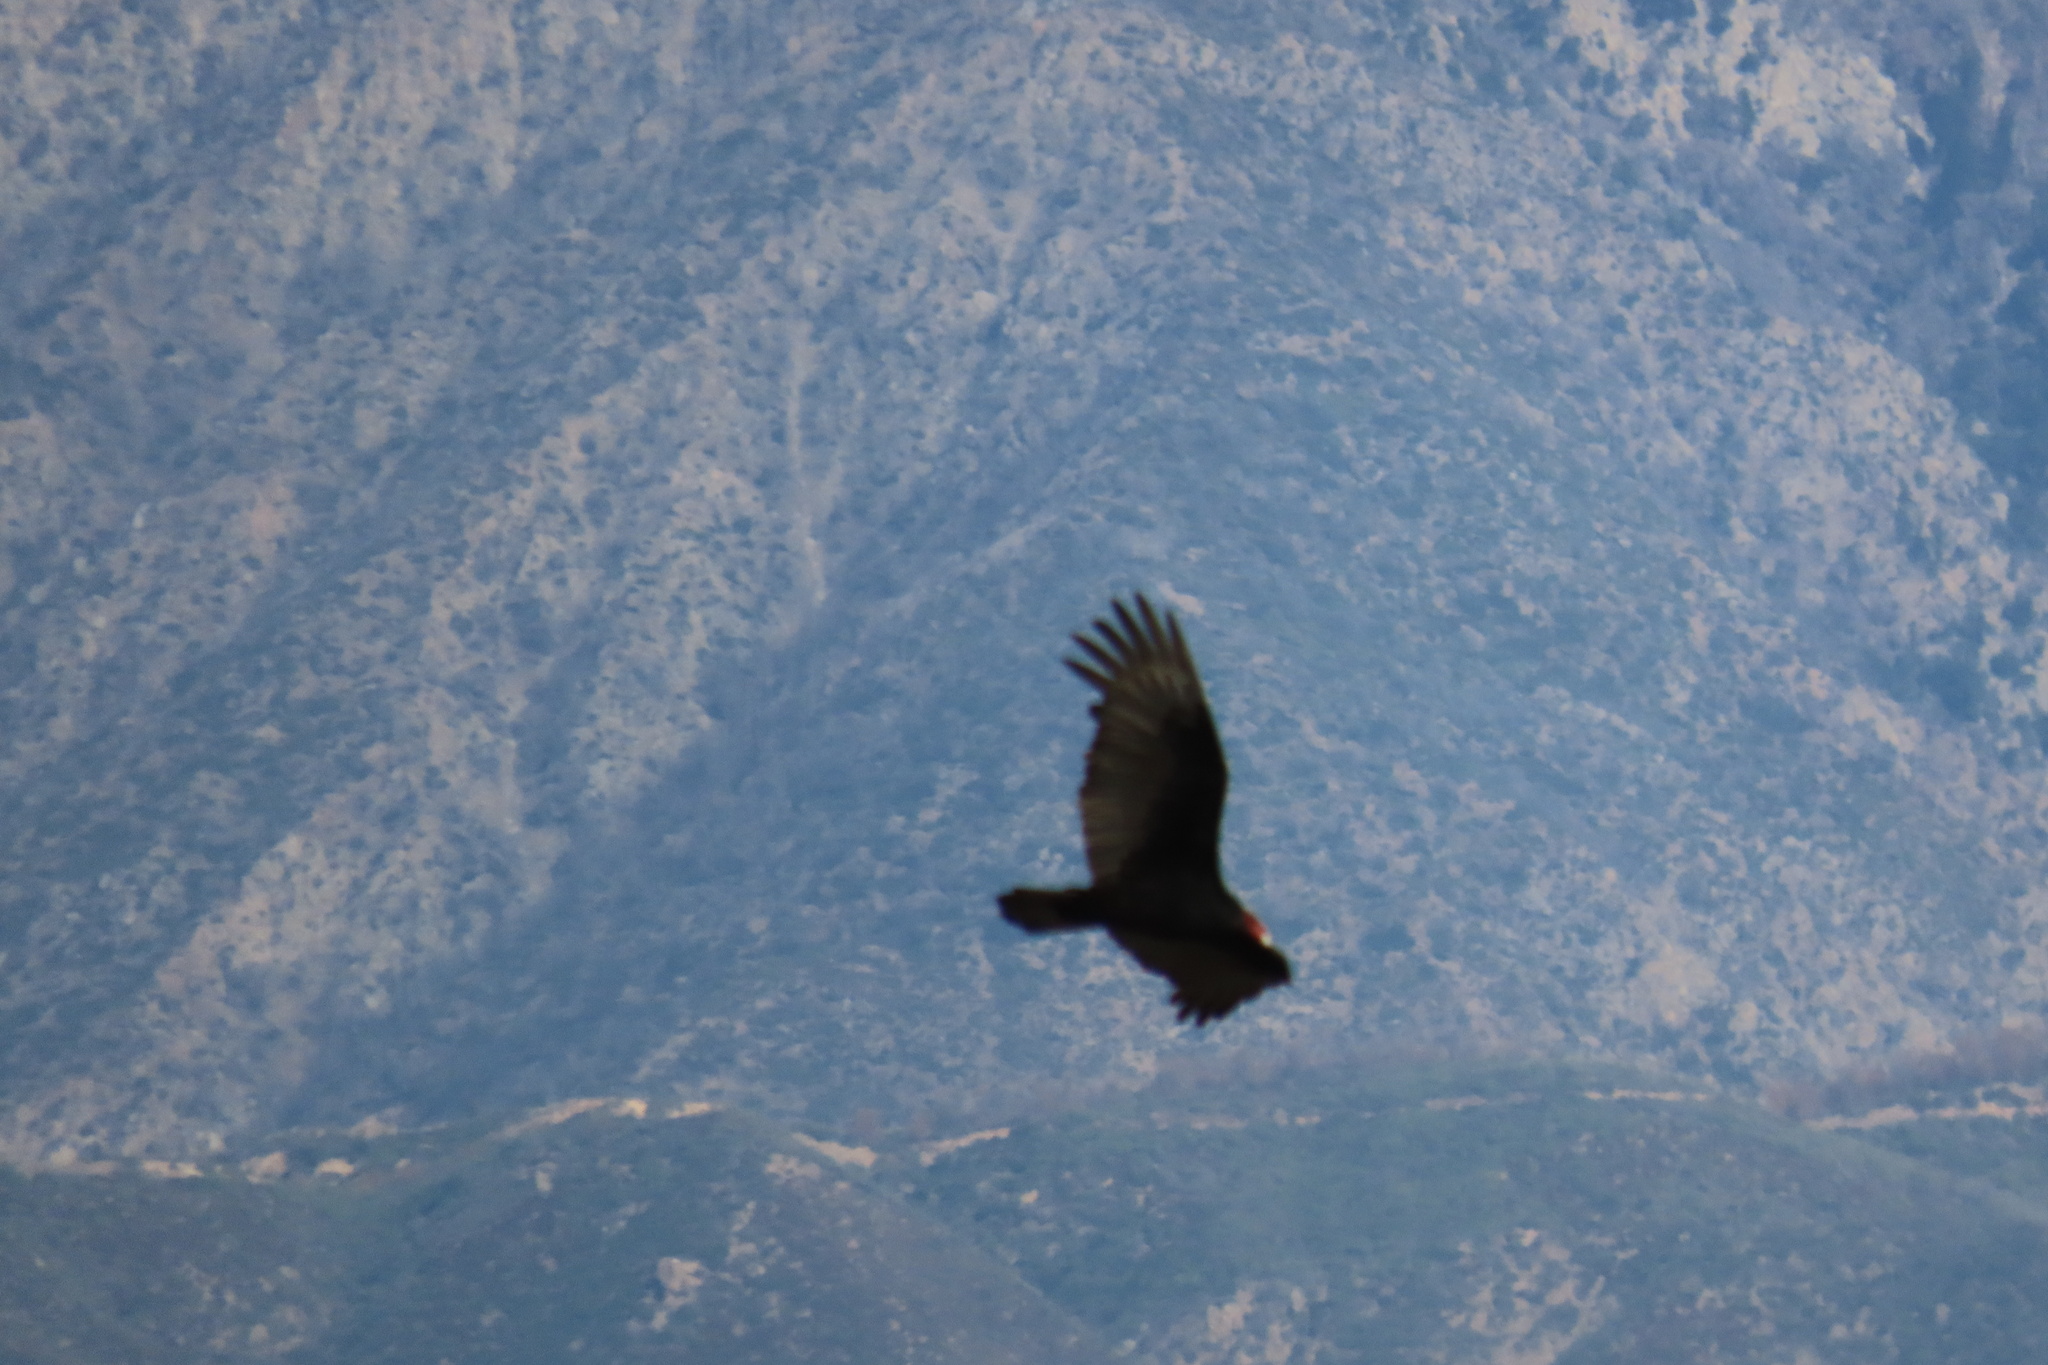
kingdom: Animalia
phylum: Chordata
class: Aves
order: Accipitriformes
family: Cathartidae
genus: Cathartes
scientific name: Cathartes aura
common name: Turkey vulture
